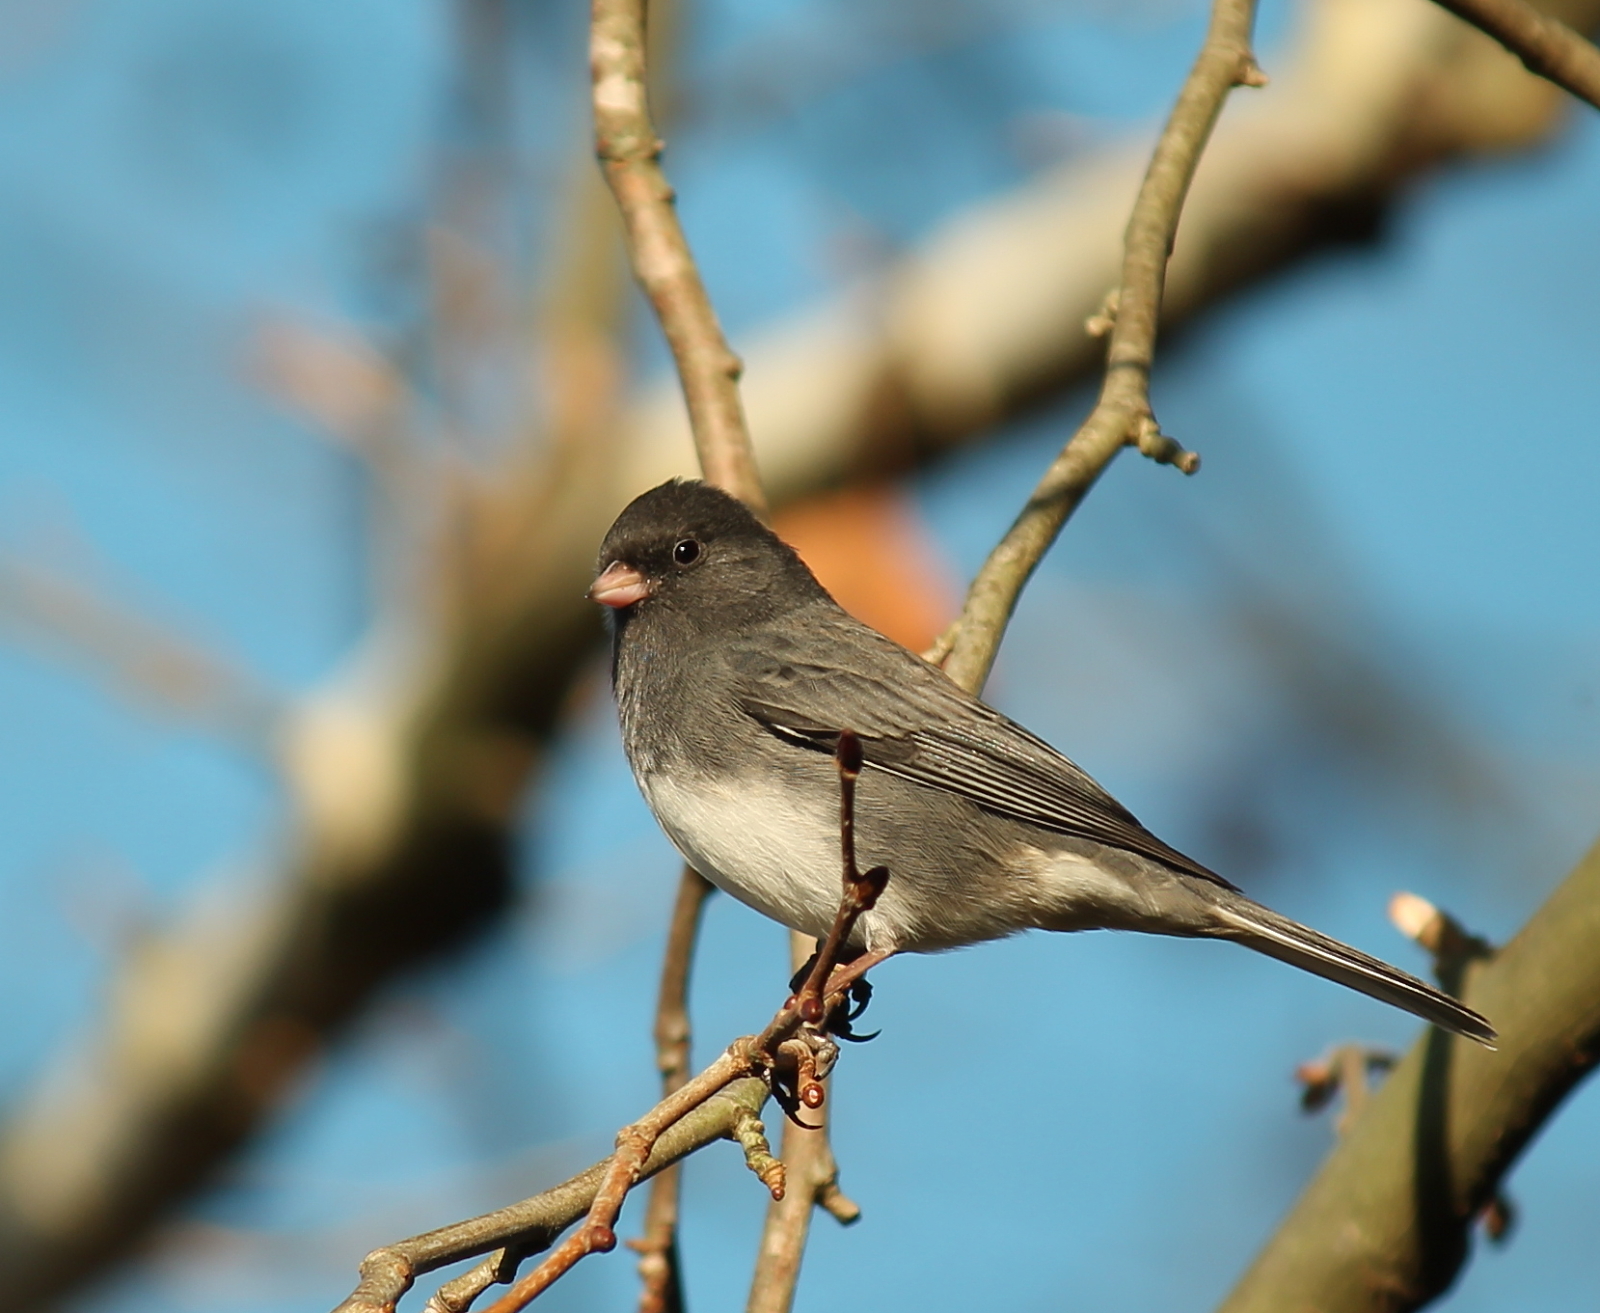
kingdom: Animalia
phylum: Chordata
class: Aves
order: Passeriformes
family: Passerellidae
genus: Junco
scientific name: Junco hyemalis
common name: Dark-eyed junco
